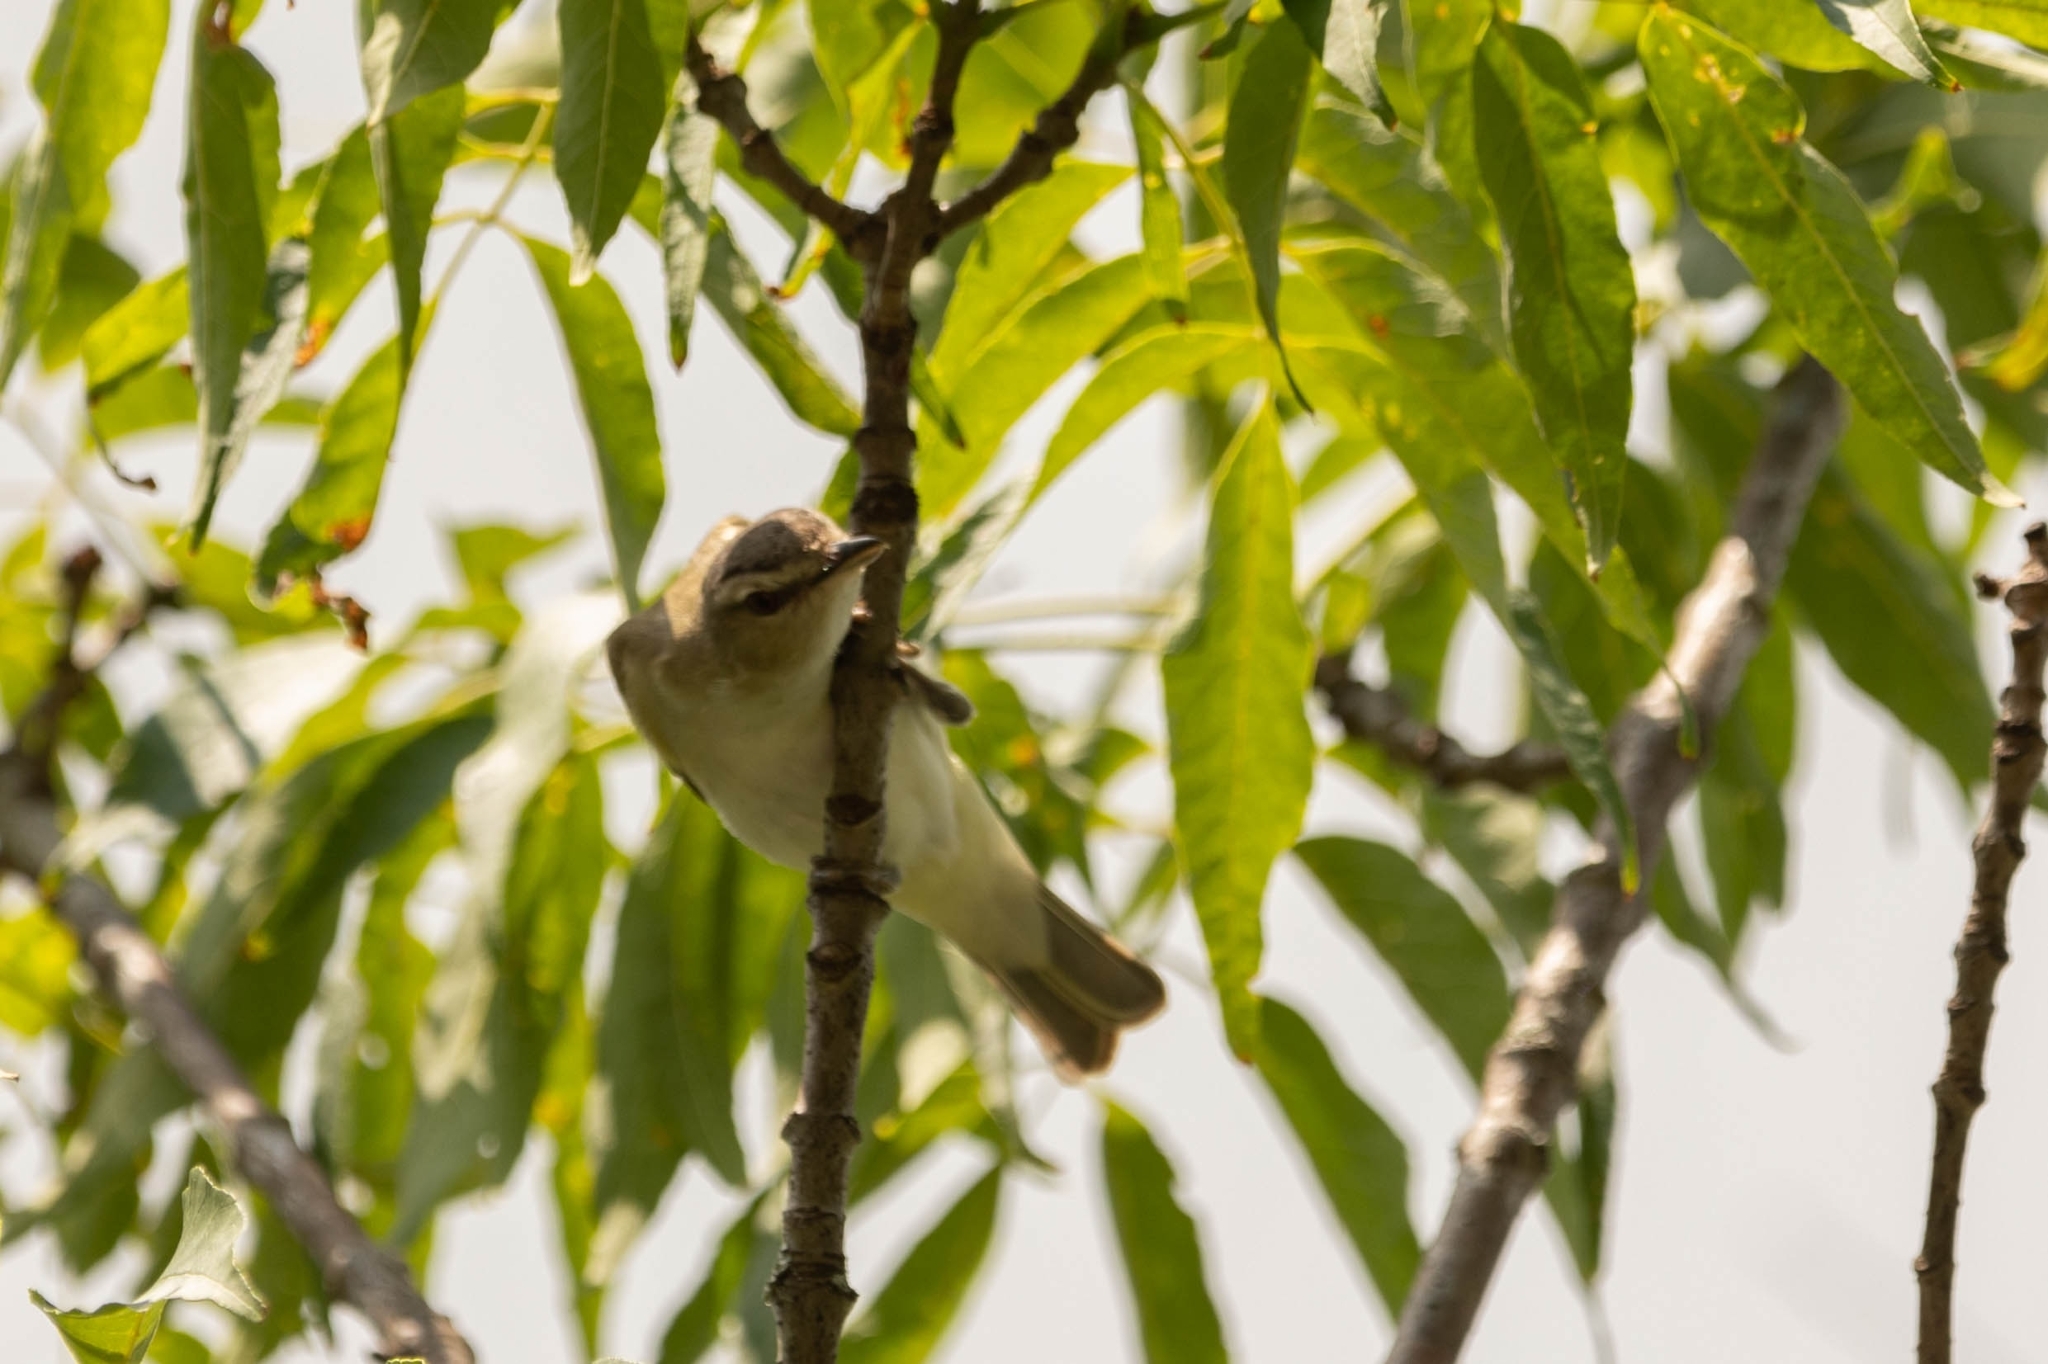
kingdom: Animalia
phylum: Chordata
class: Aves
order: Passeriformes
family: Vireonidae
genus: Vireo
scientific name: Vireo olivaceus
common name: Red-eyed vireo
